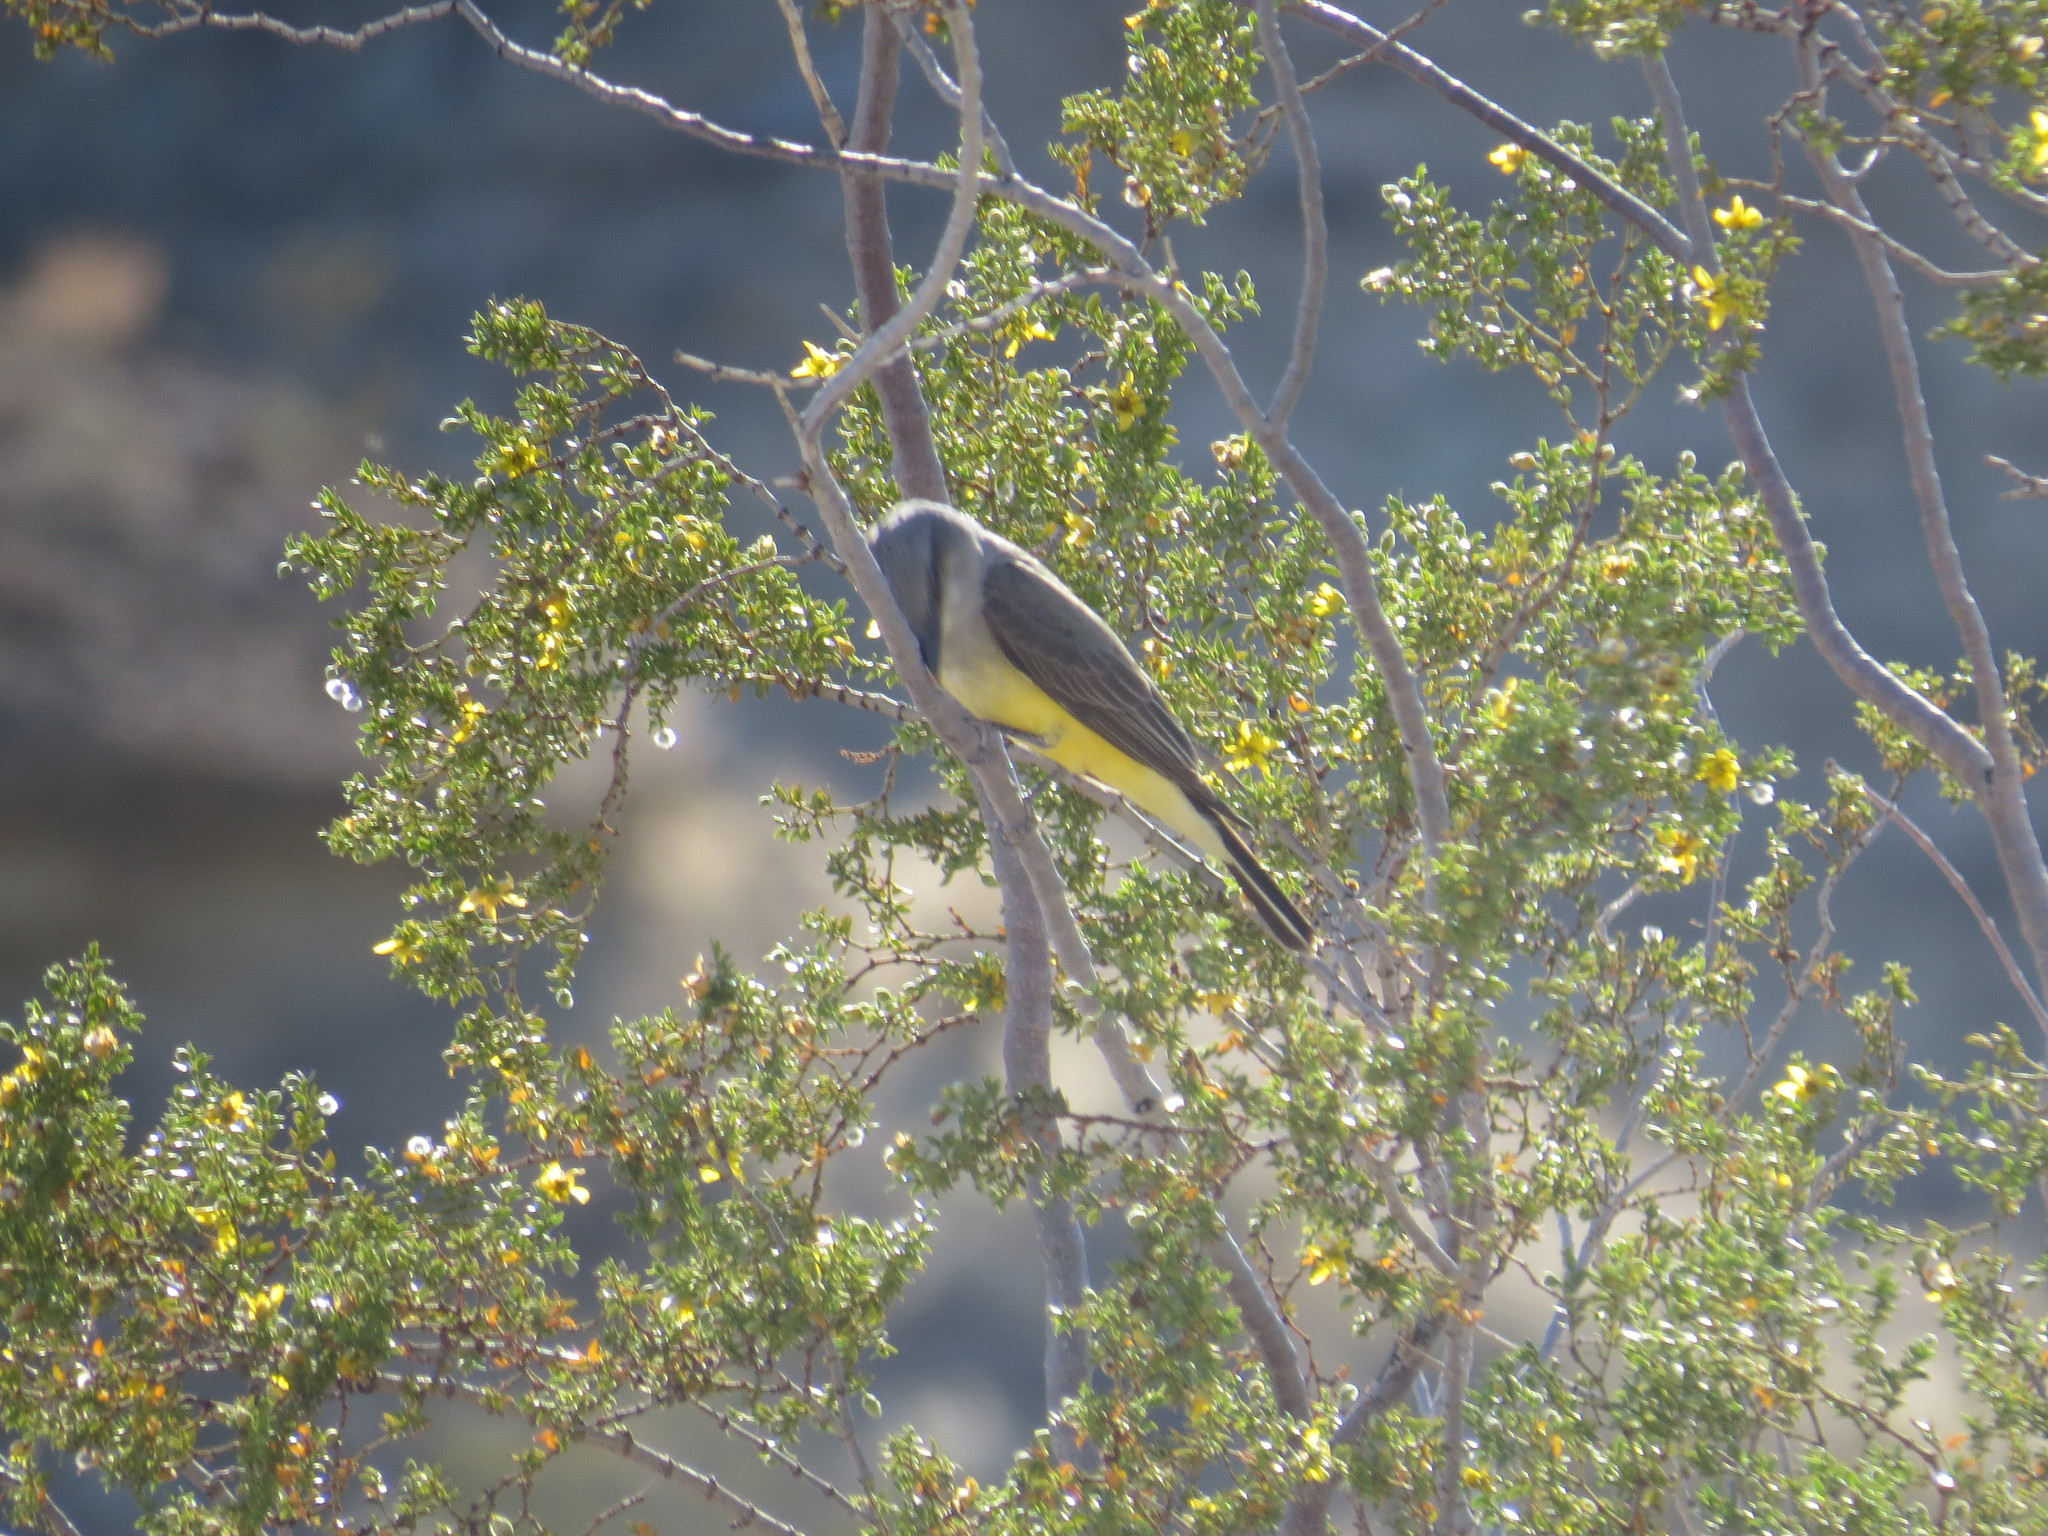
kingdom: Animalia
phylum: Chordata
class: Aves
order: Passeriformes
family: Tyrannidae
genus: Tyrannus
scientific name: Tyrannus verticalis
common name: Western kingbird
